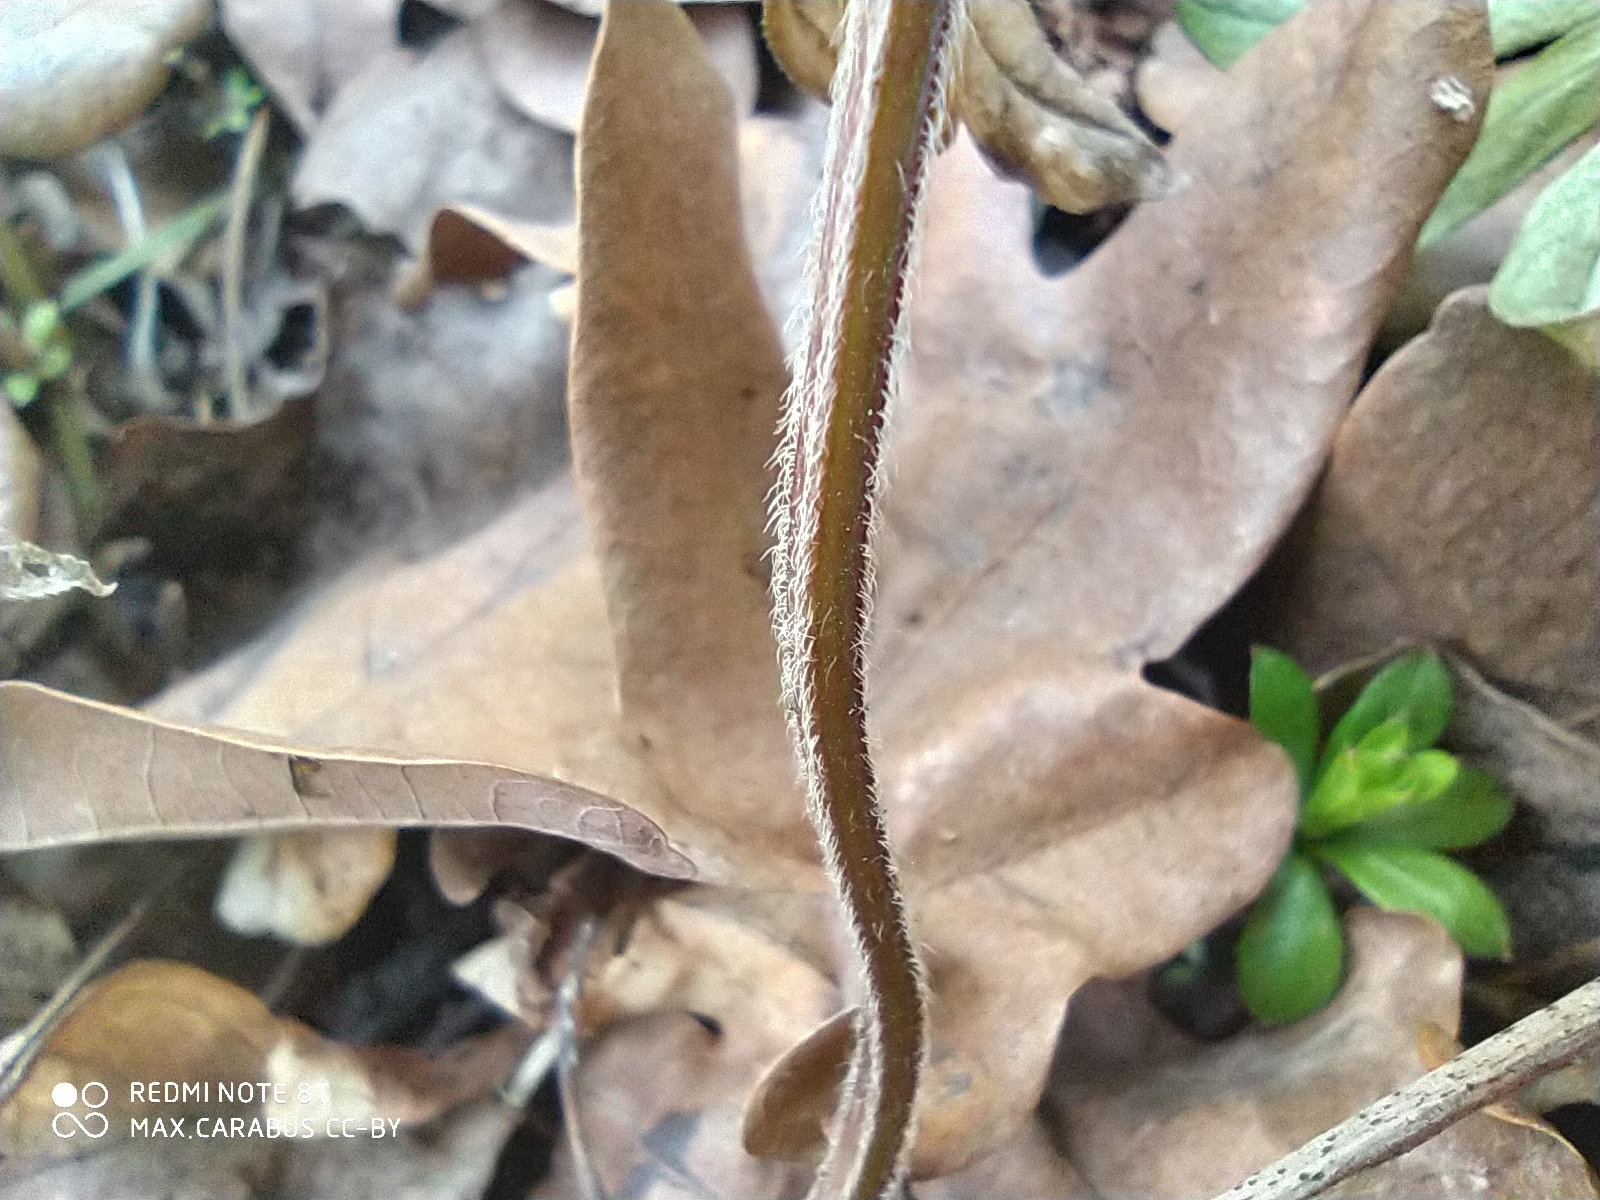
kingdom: Plantae
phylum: Tracheophyta
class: Magnoliopsida
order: Lamiales
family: Lamiaceae
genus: Lamium
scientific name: Lamium galeobdolon
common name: Yellow archangel
